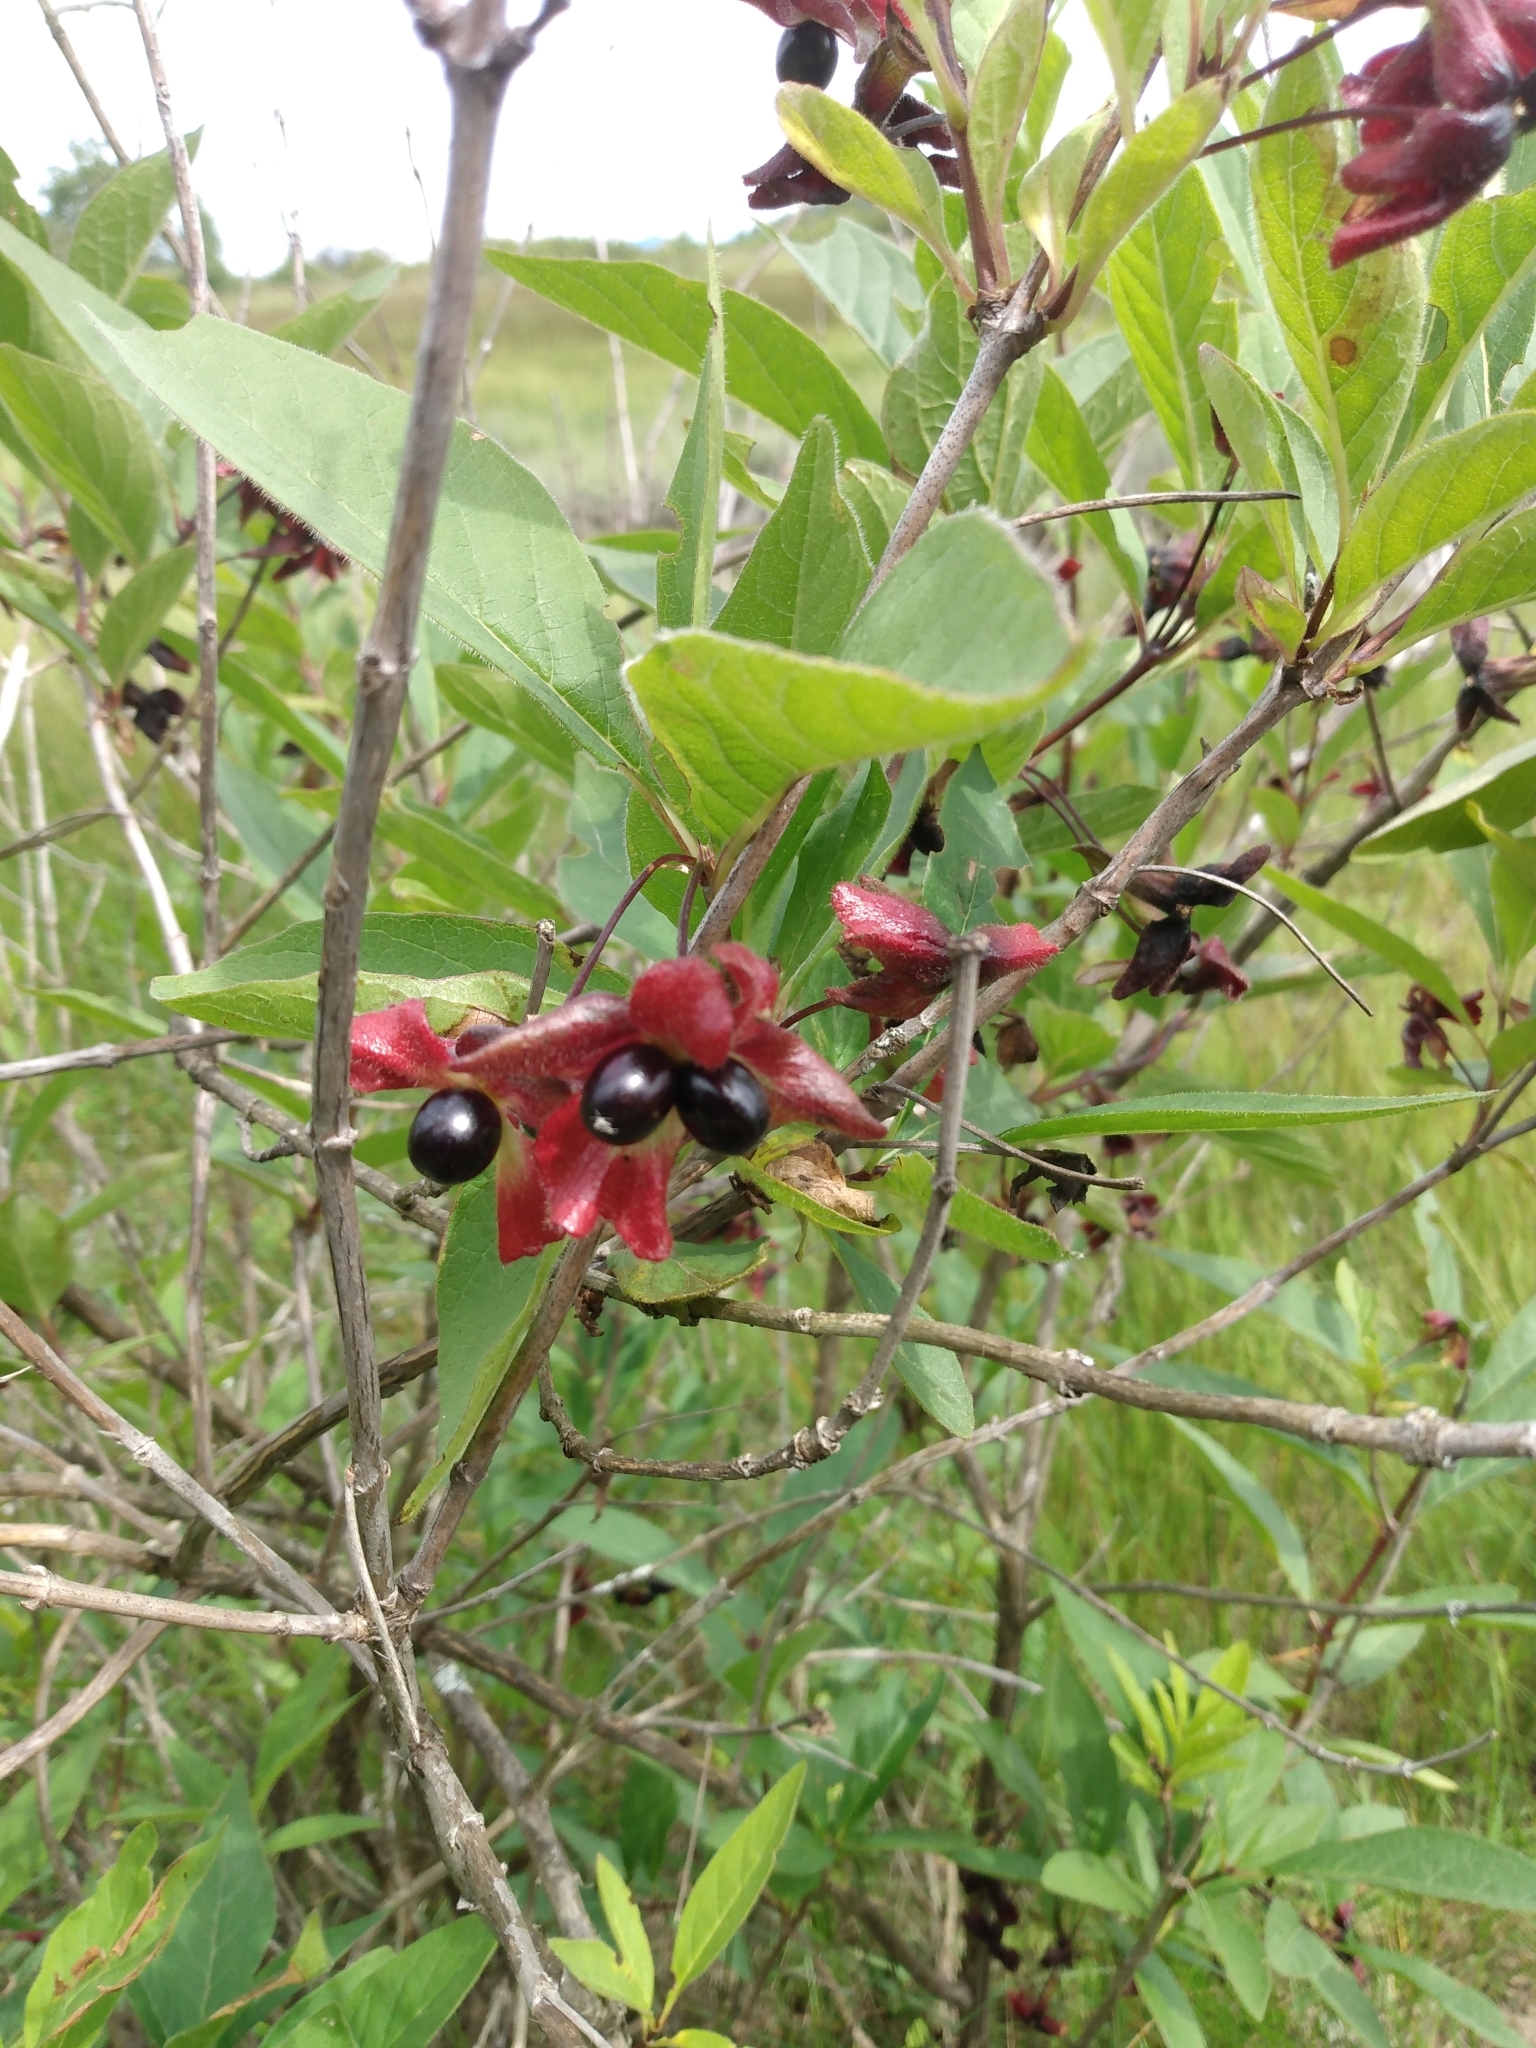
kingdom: Plantae
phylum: Tracheophyta
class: Magnoliopsida
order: Dipsacales
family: Caprifoliaceae
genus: Lonicera
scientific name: Lonicera involucrata
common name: Californian honeysuckle
